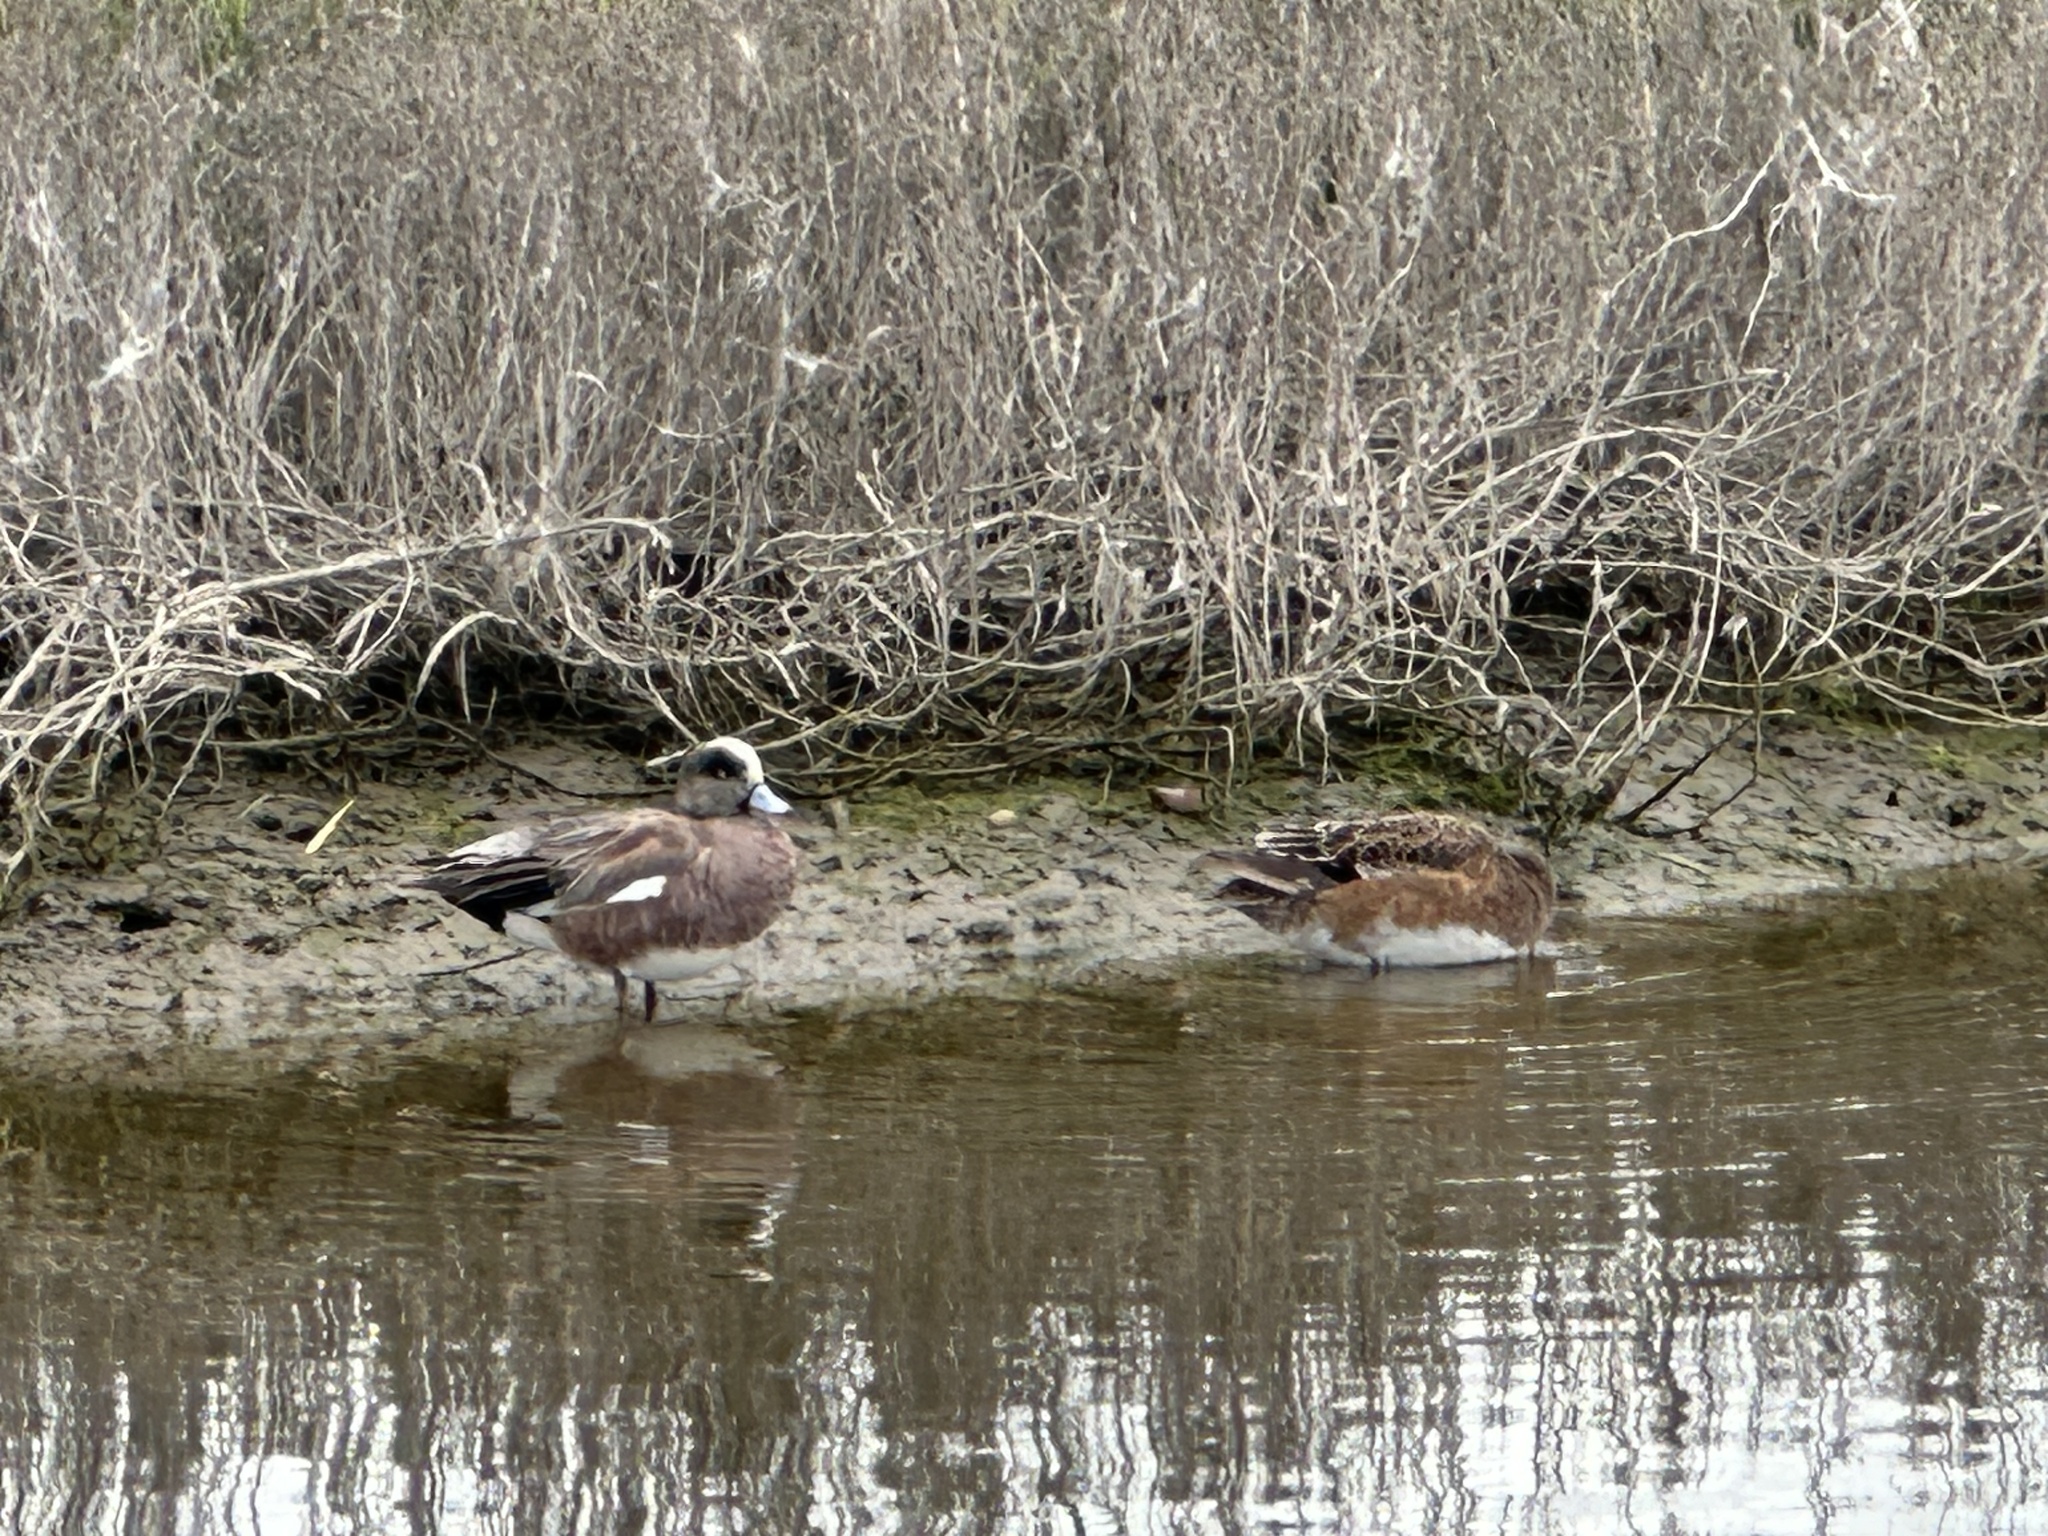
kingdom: Animalia
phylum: Chordata
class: Aves
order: Anseriformes
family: Anatidae
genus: Mareca
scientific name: Mareca americana
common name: American wigeon
